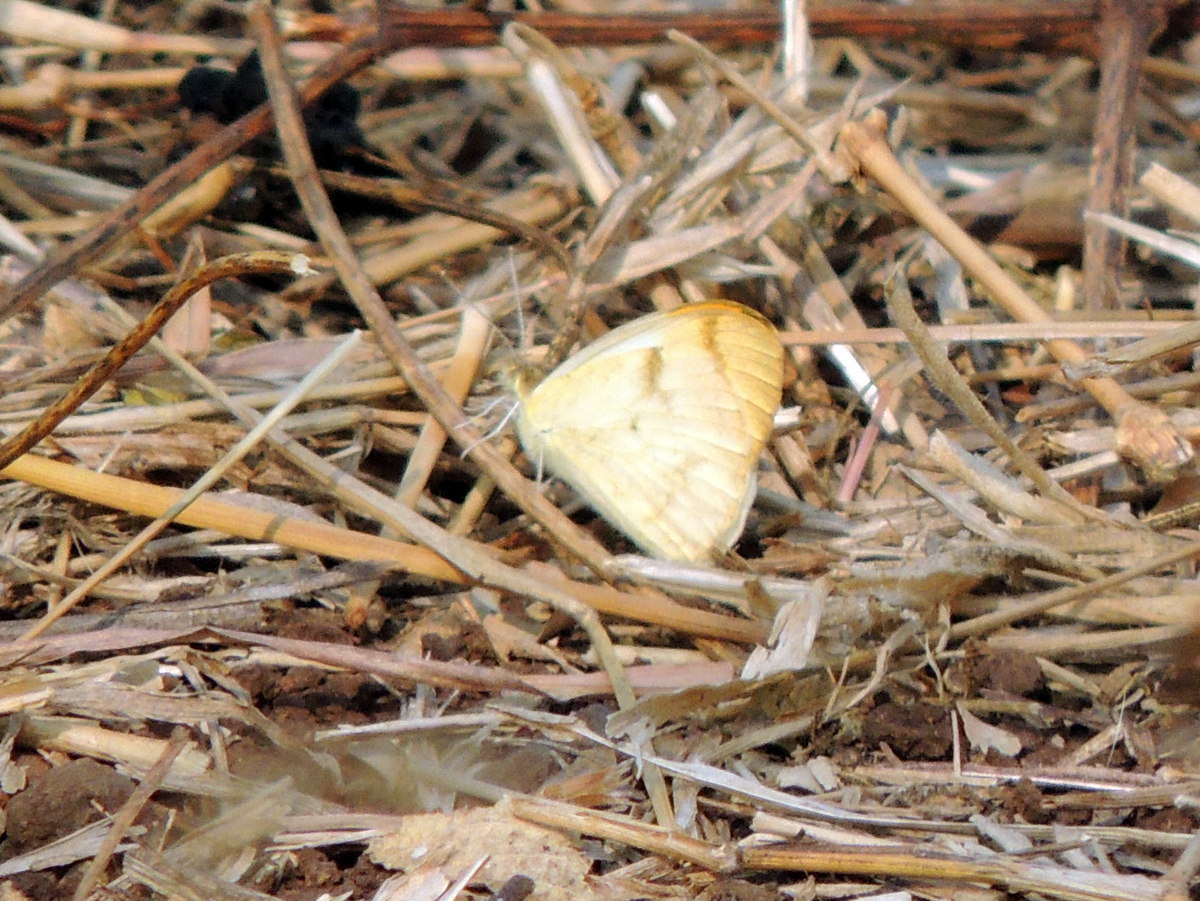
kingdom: Animalia
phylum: Arthropoda
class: Insecta
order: Lepidoptera
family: Pieridae
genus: Colotis
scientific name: Colotis aurora
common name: Plain orange-tip
